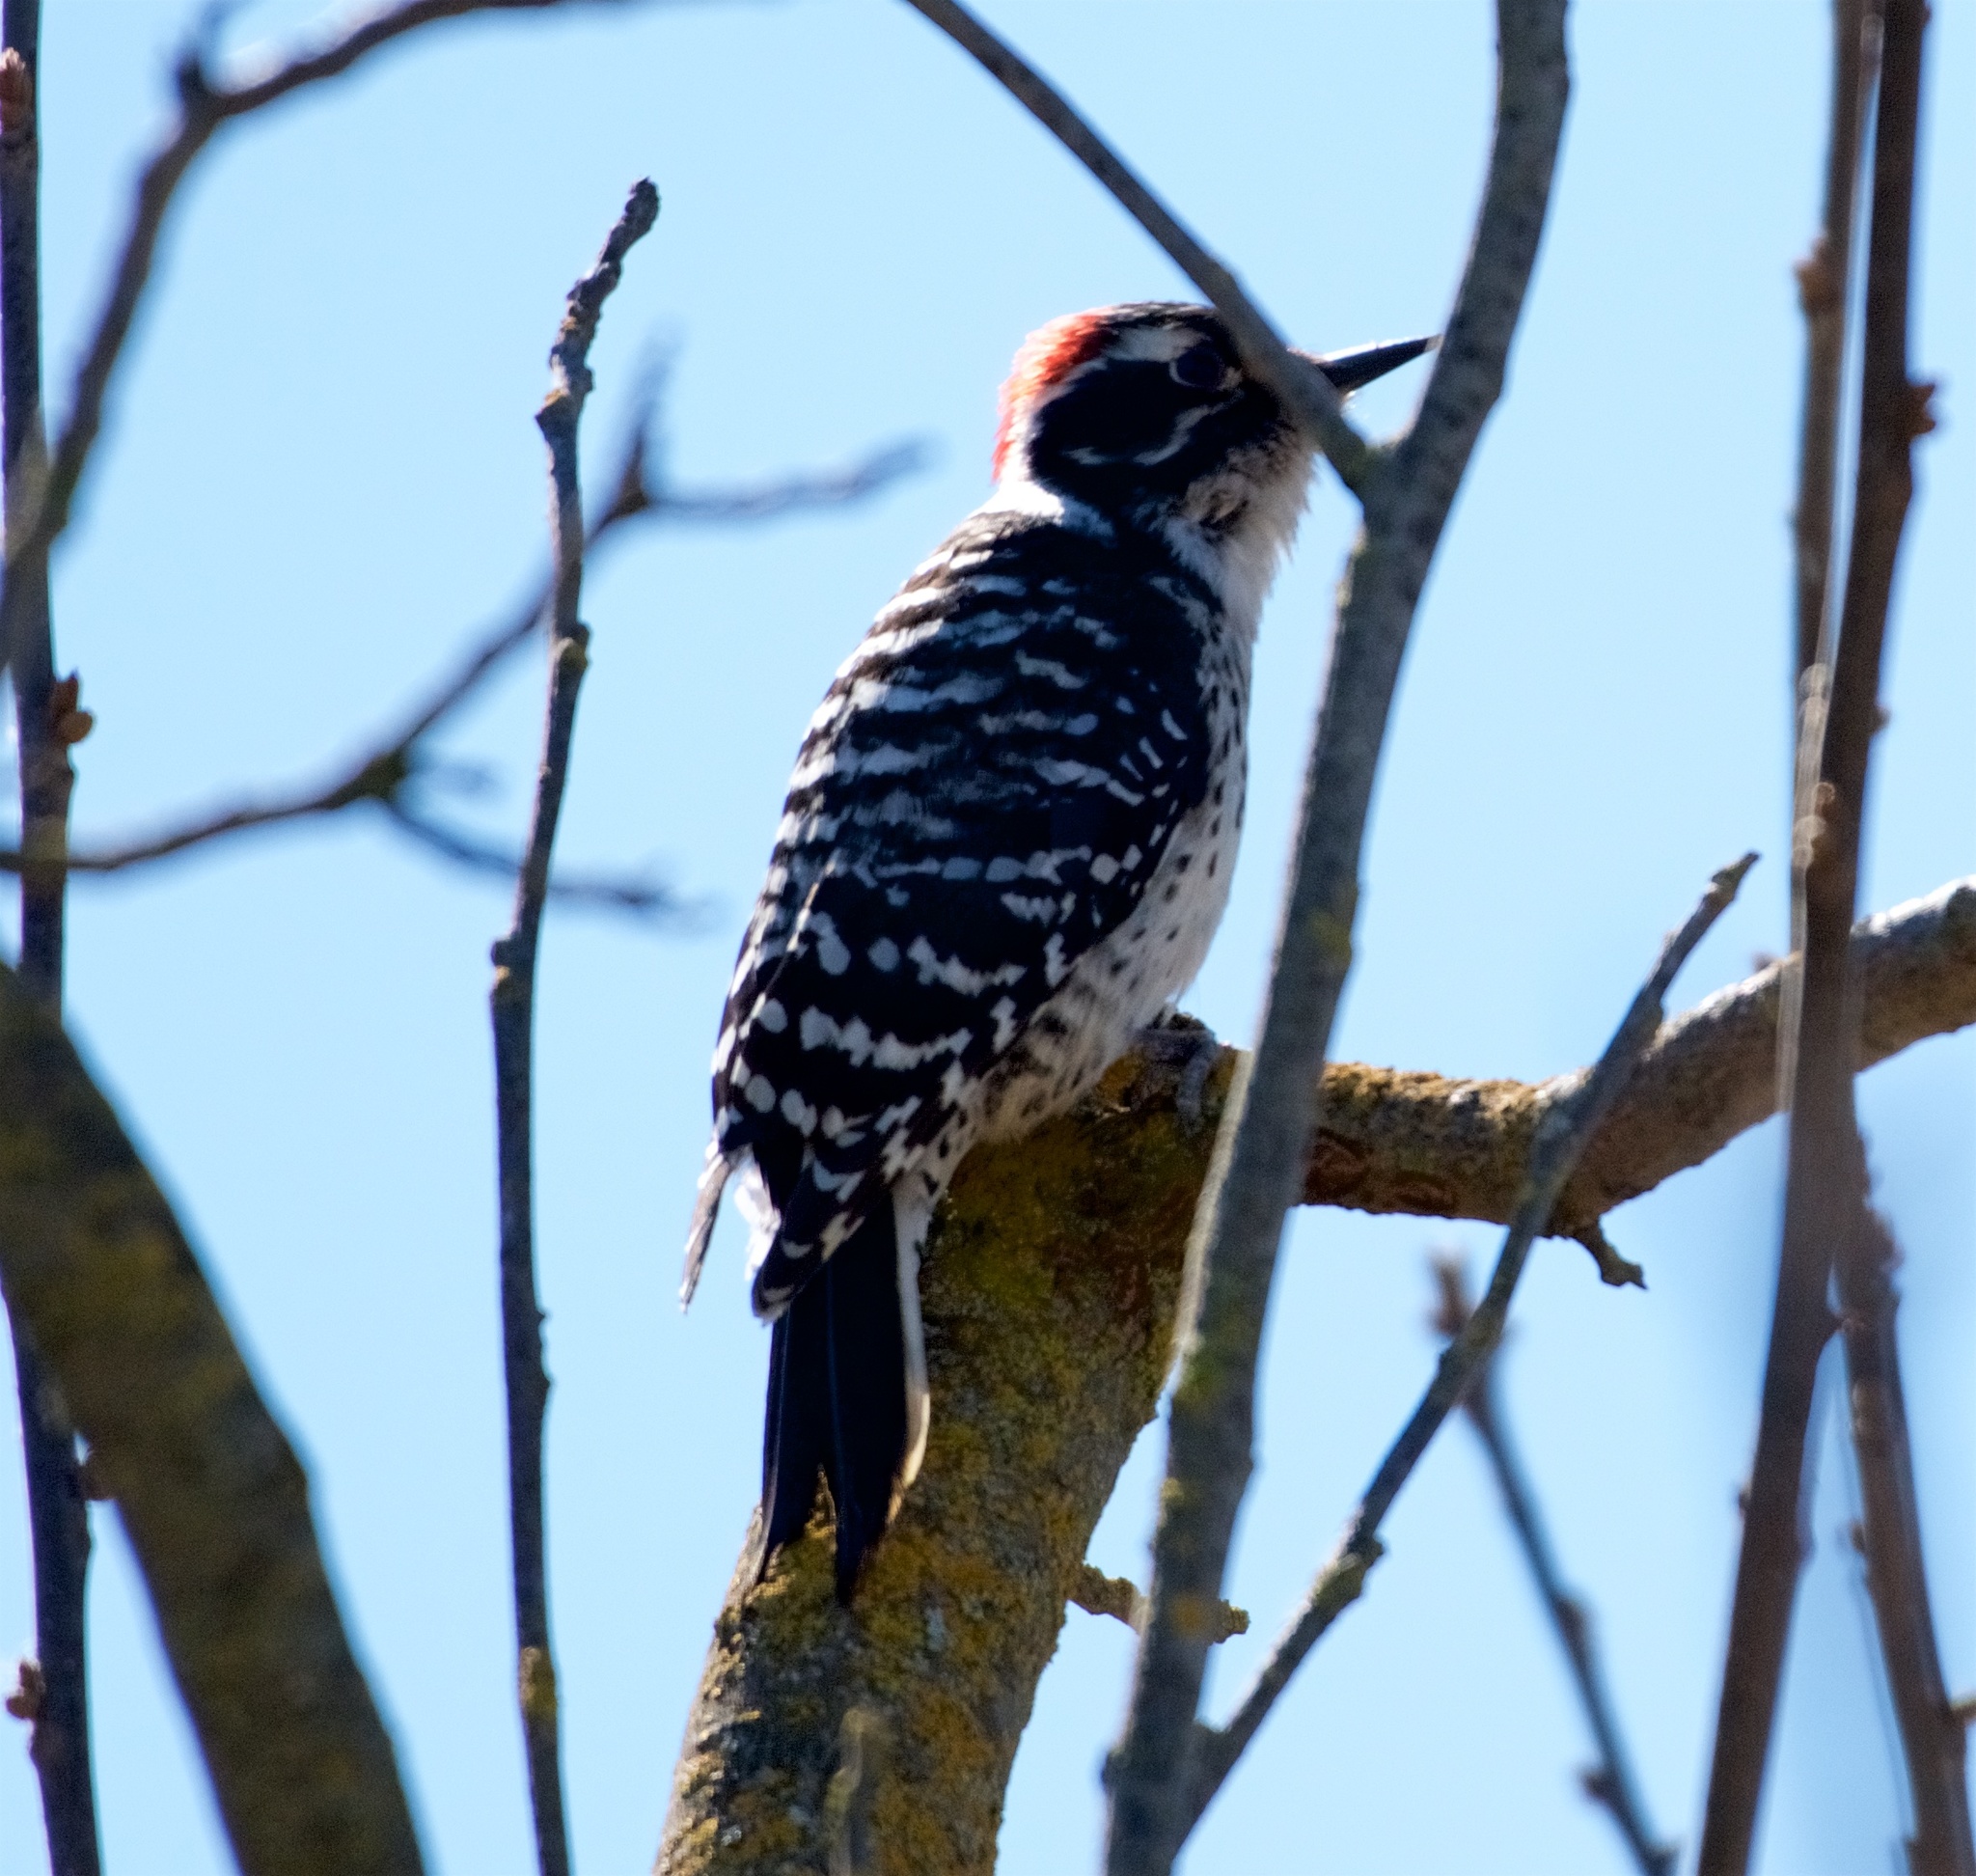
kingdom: Animalia
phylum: Chordata
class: Aves
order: Piciformes
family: Picidae
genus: Dryobates
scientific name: Dryobates nuttallii
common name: Nuttall's woodpecker
